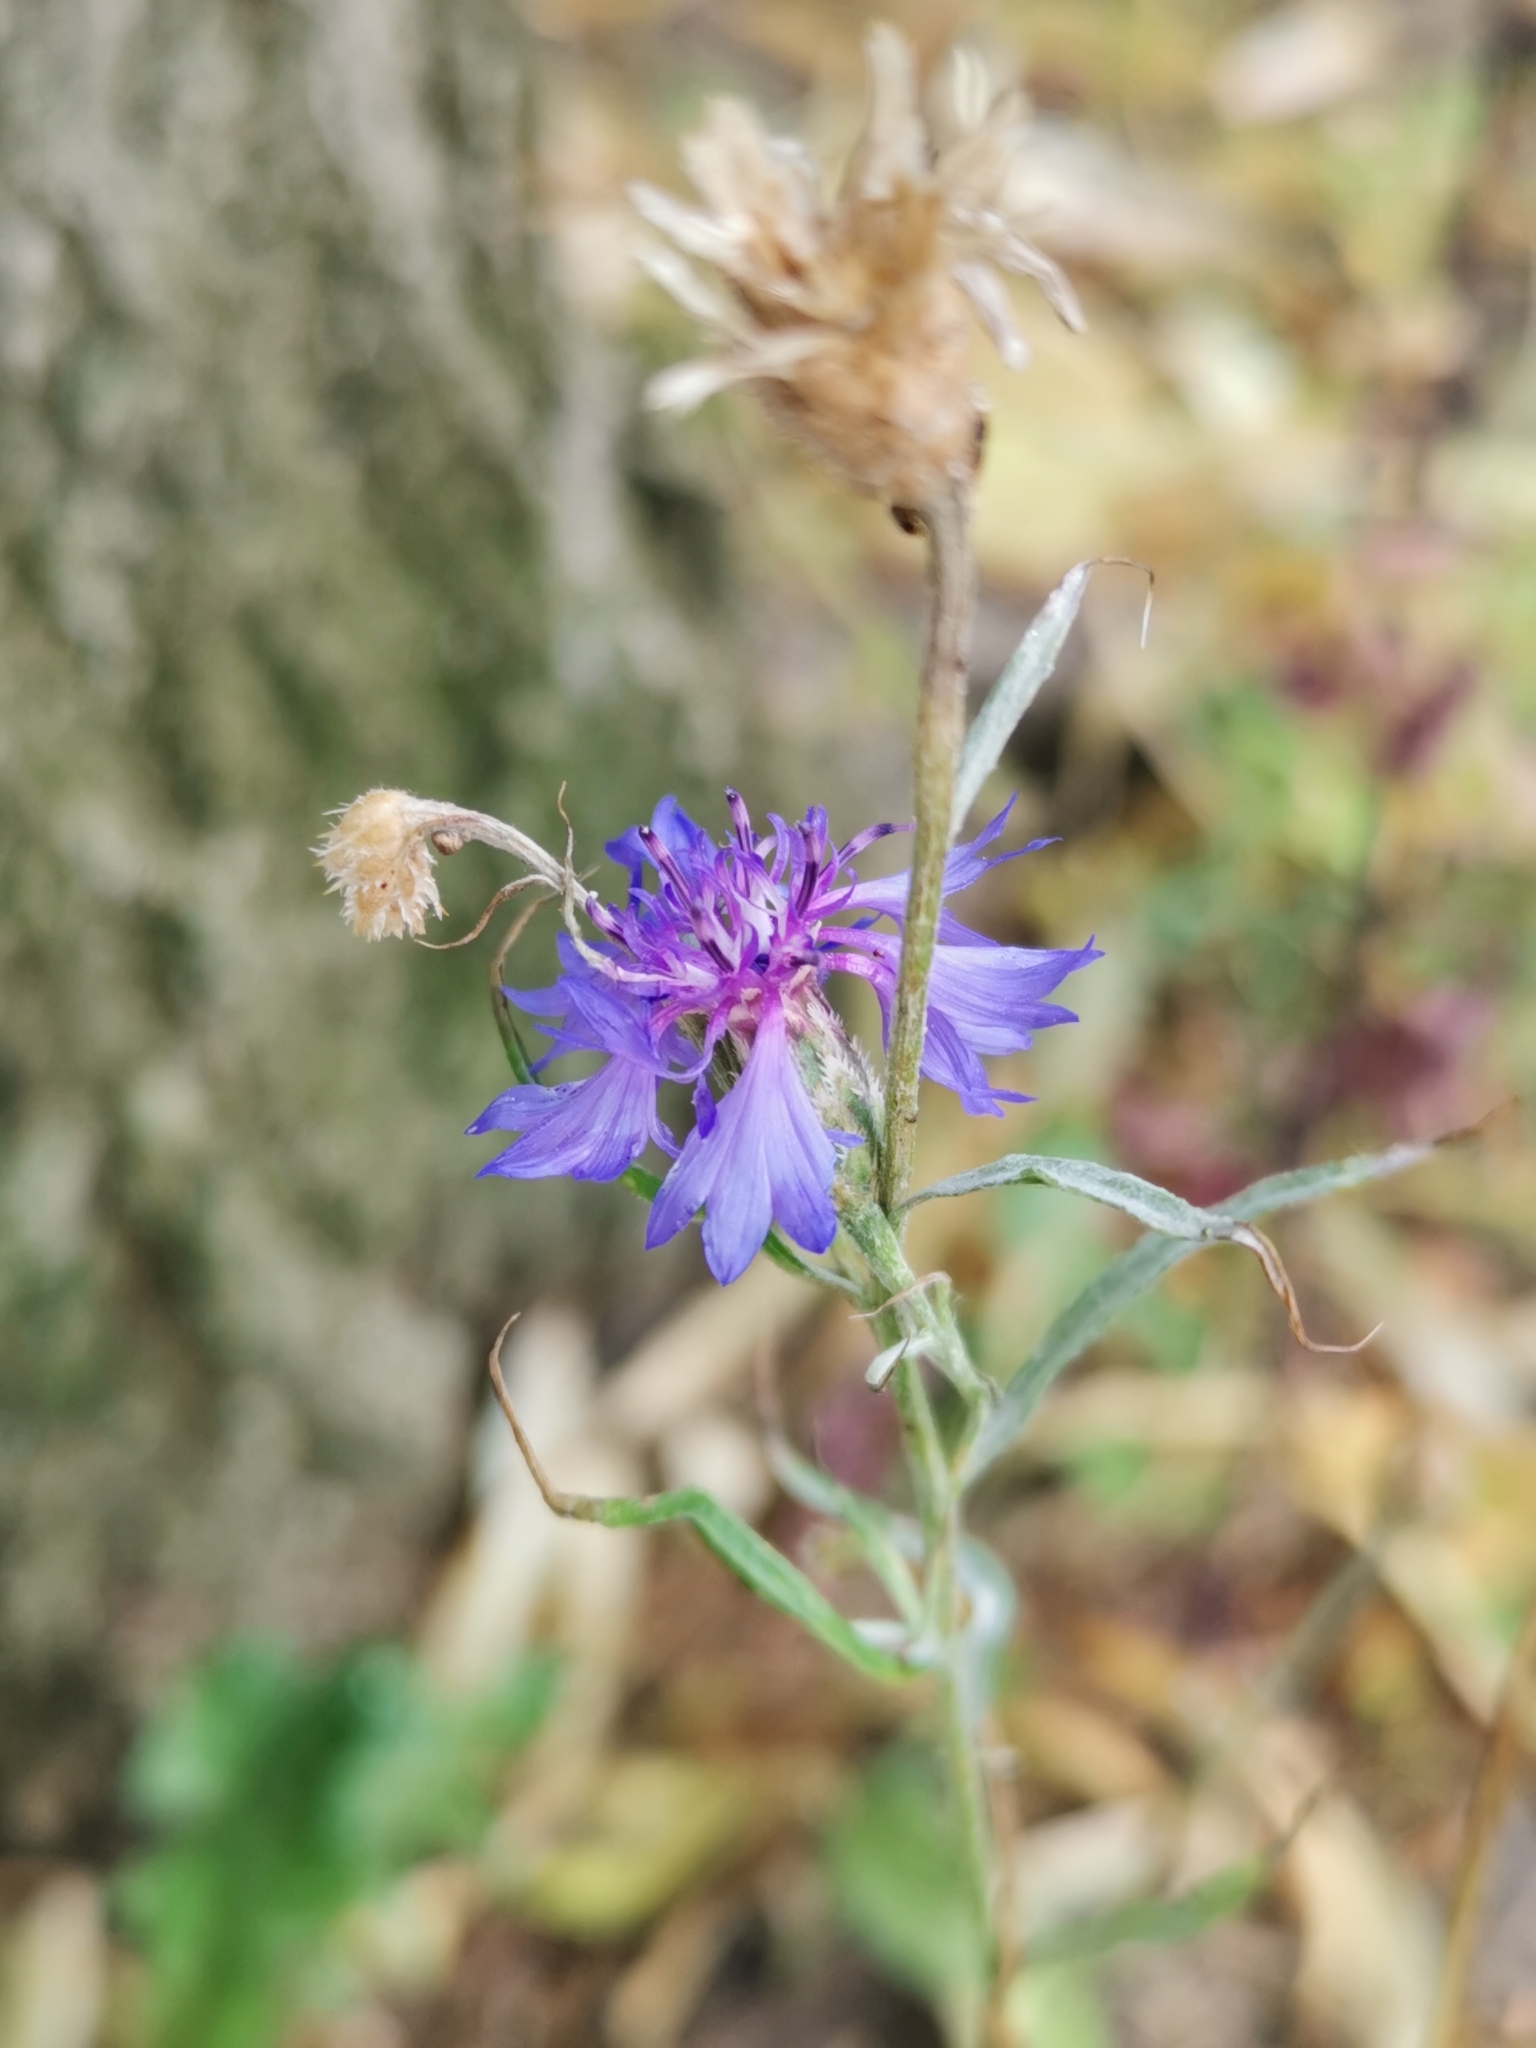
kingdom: Plantae
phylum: Tracheophyta
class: Magnoliopsida
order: Asterales
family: Asteraceae
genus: Centaurea
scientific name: Centaurea cyanus
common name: Cornflower
